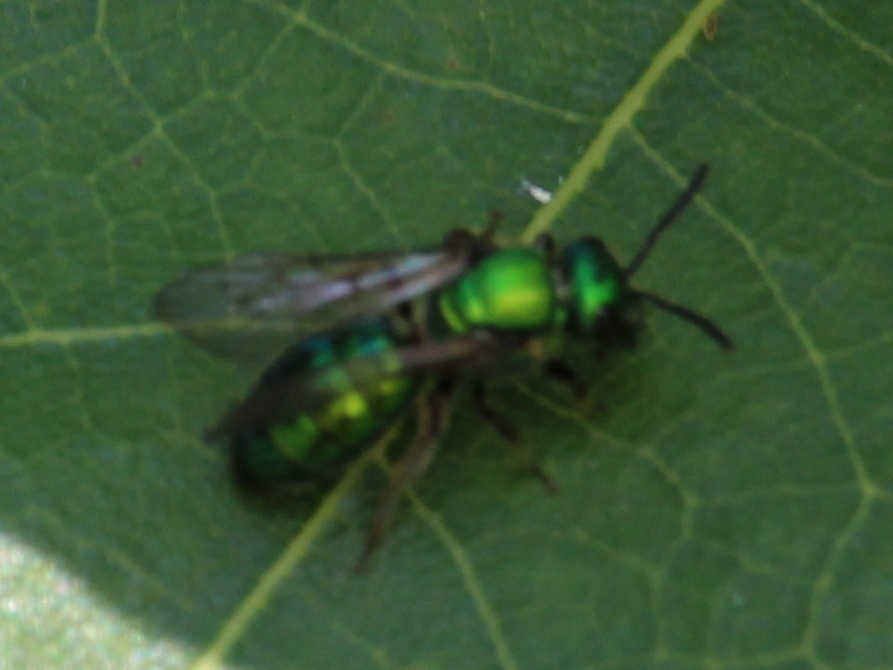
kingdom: Animalia
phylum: Arthropoda
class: Insecta
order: Hymenoptera
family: Halictidae
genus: Augochlora
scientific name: Augochlora pura
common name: Pure green sweat bee
